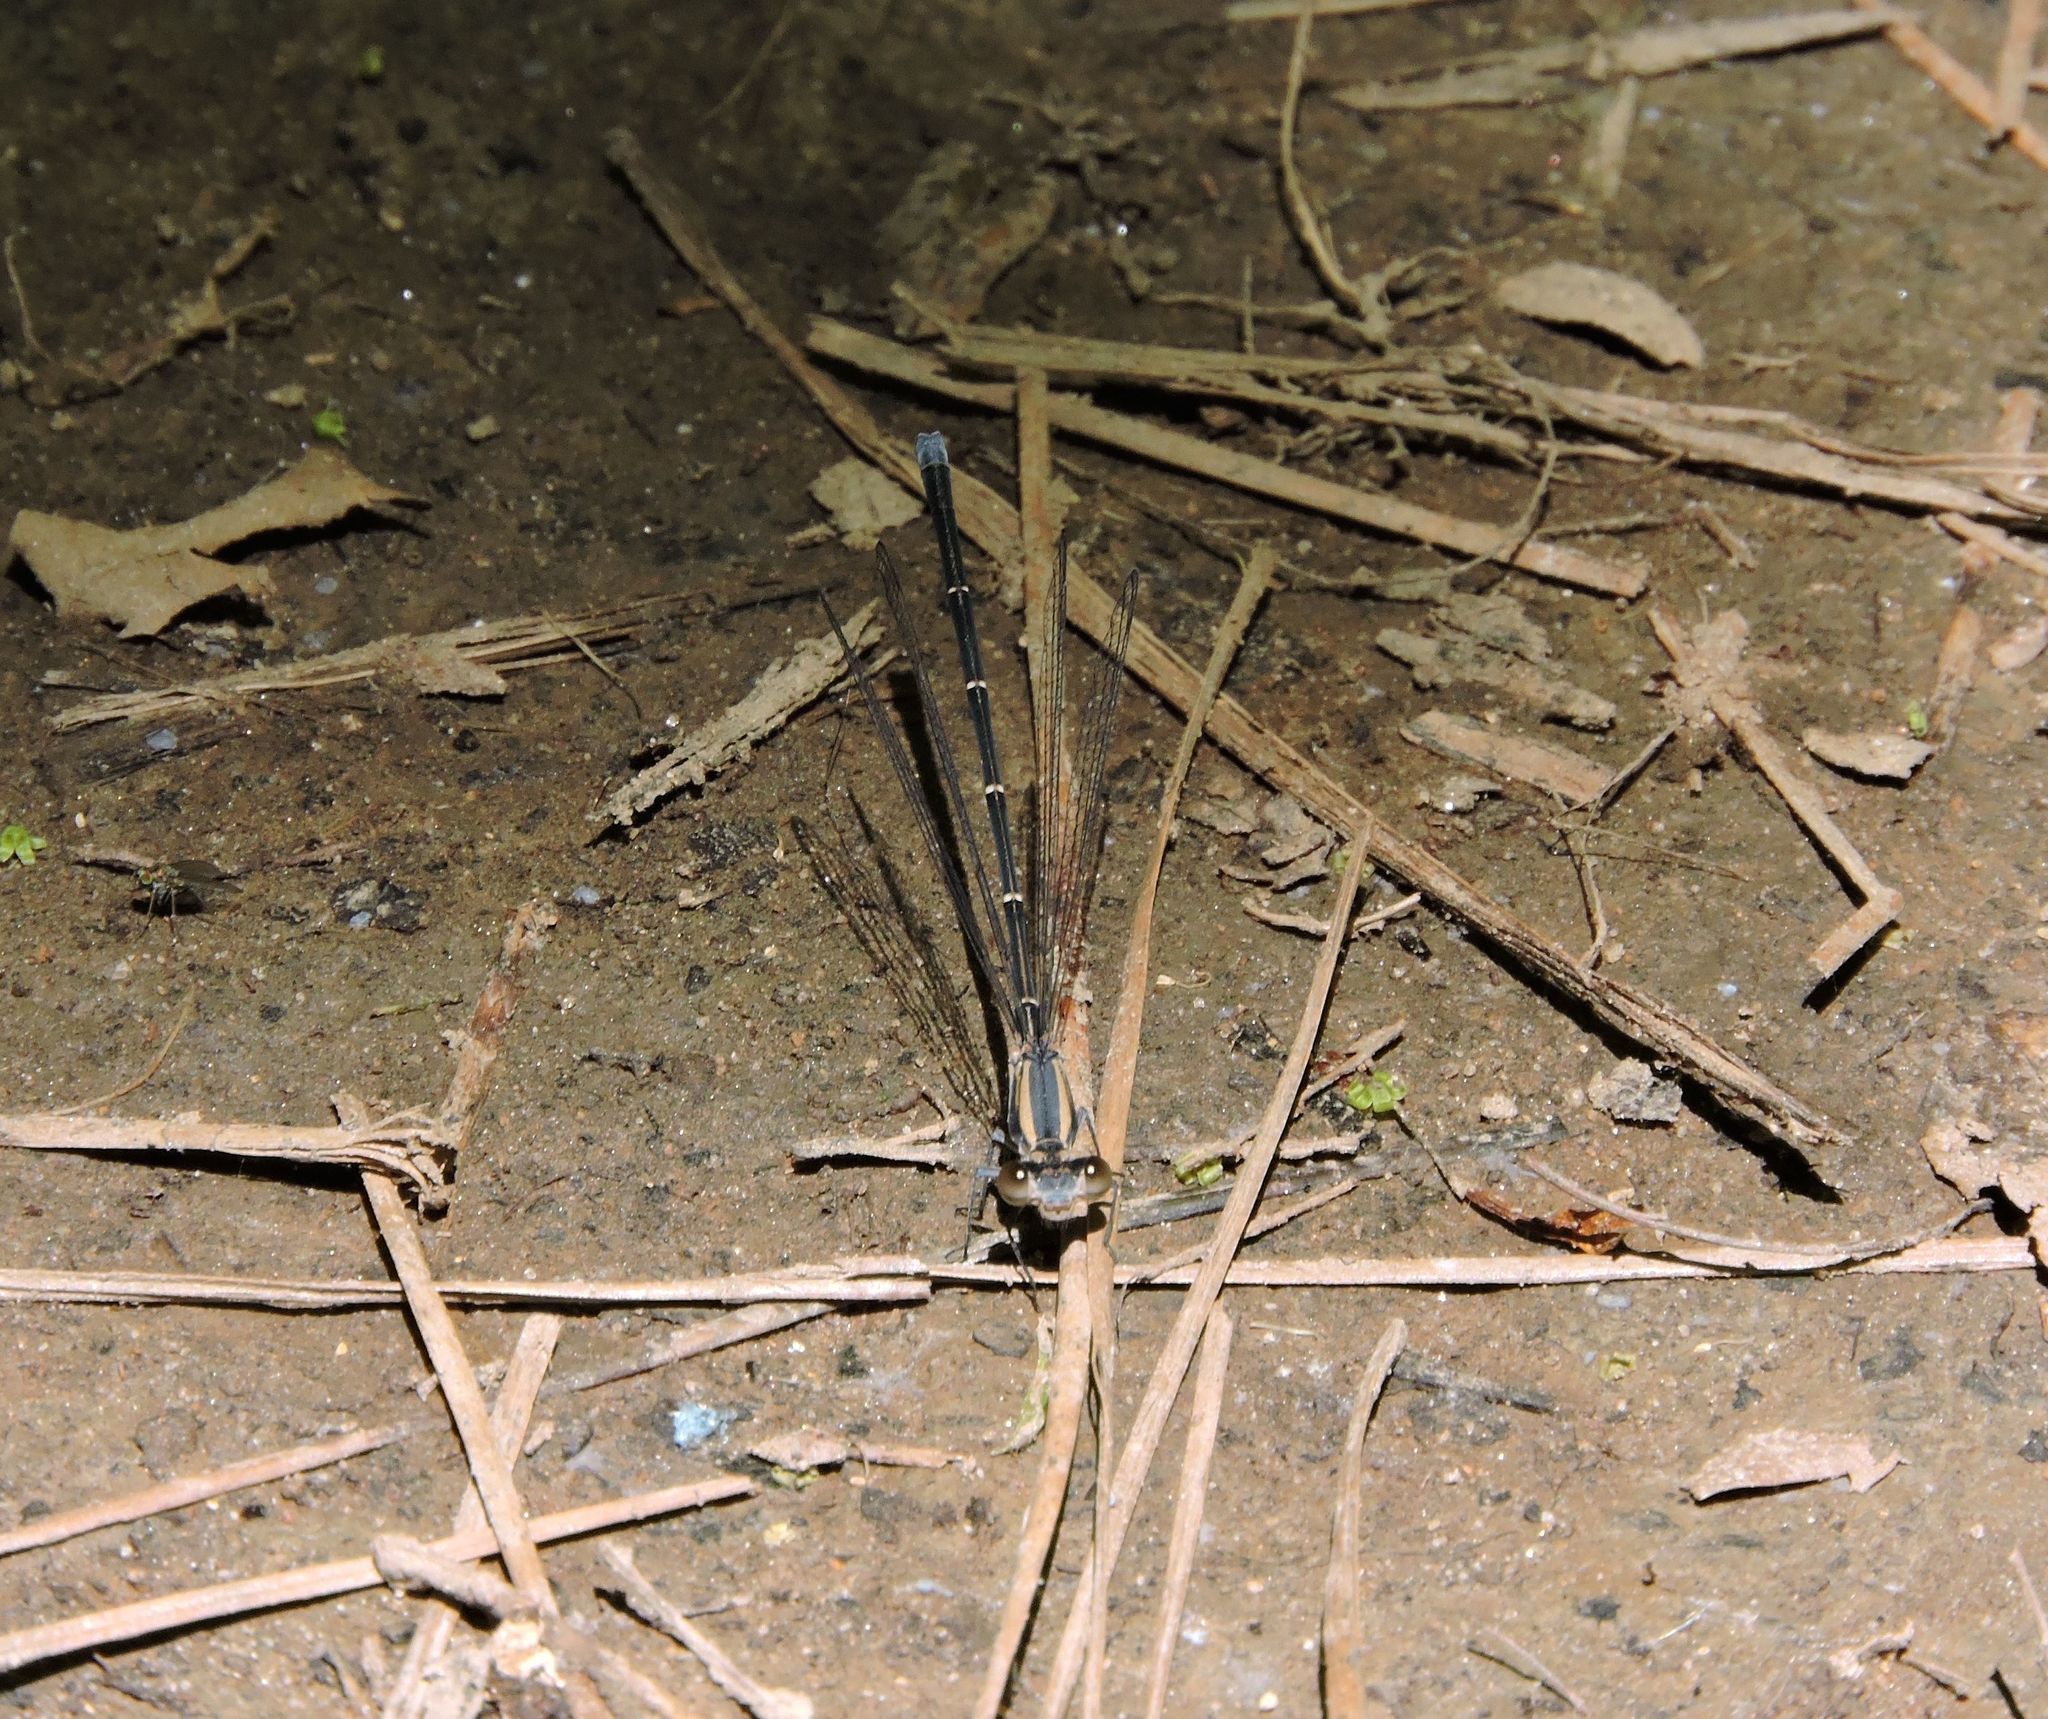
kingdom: Animalia
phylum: Arthropoda
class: Insecta
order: Odonata
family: Coenagrionidae
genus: Argia
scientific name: Argia moesta
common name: Powdered dancer
